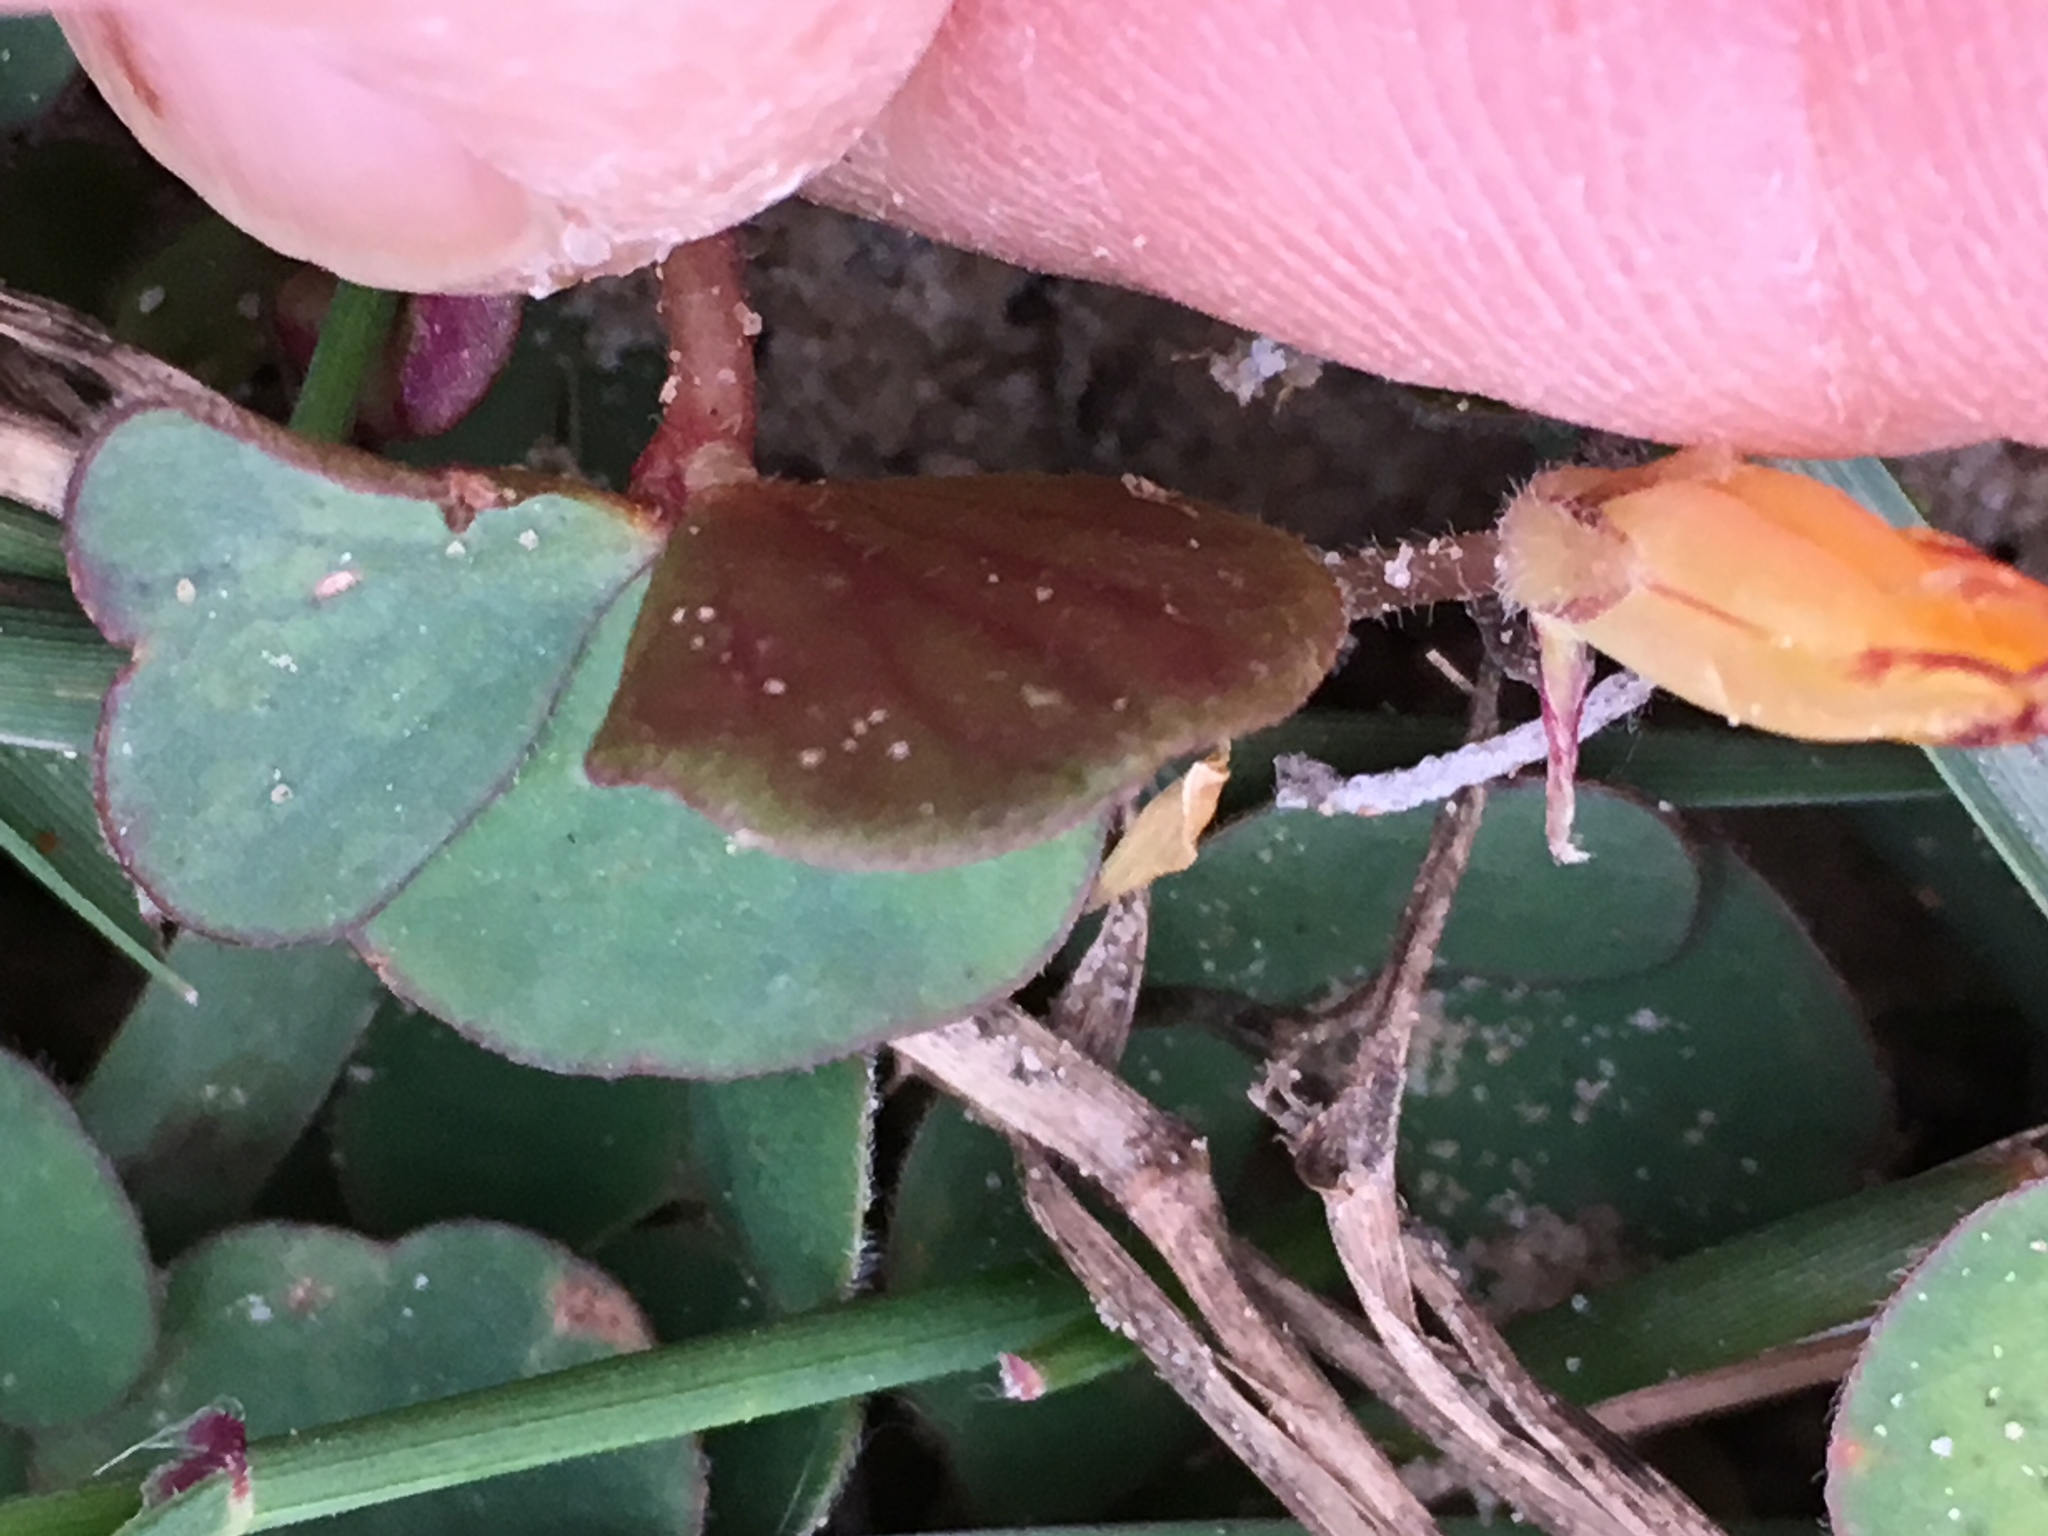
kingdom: Plantae
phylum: Tracheophyta
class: Magnoliopsida
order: Oxalidales
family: Oxalidaceae
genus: Oxalis
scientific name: Oxalis luteola
